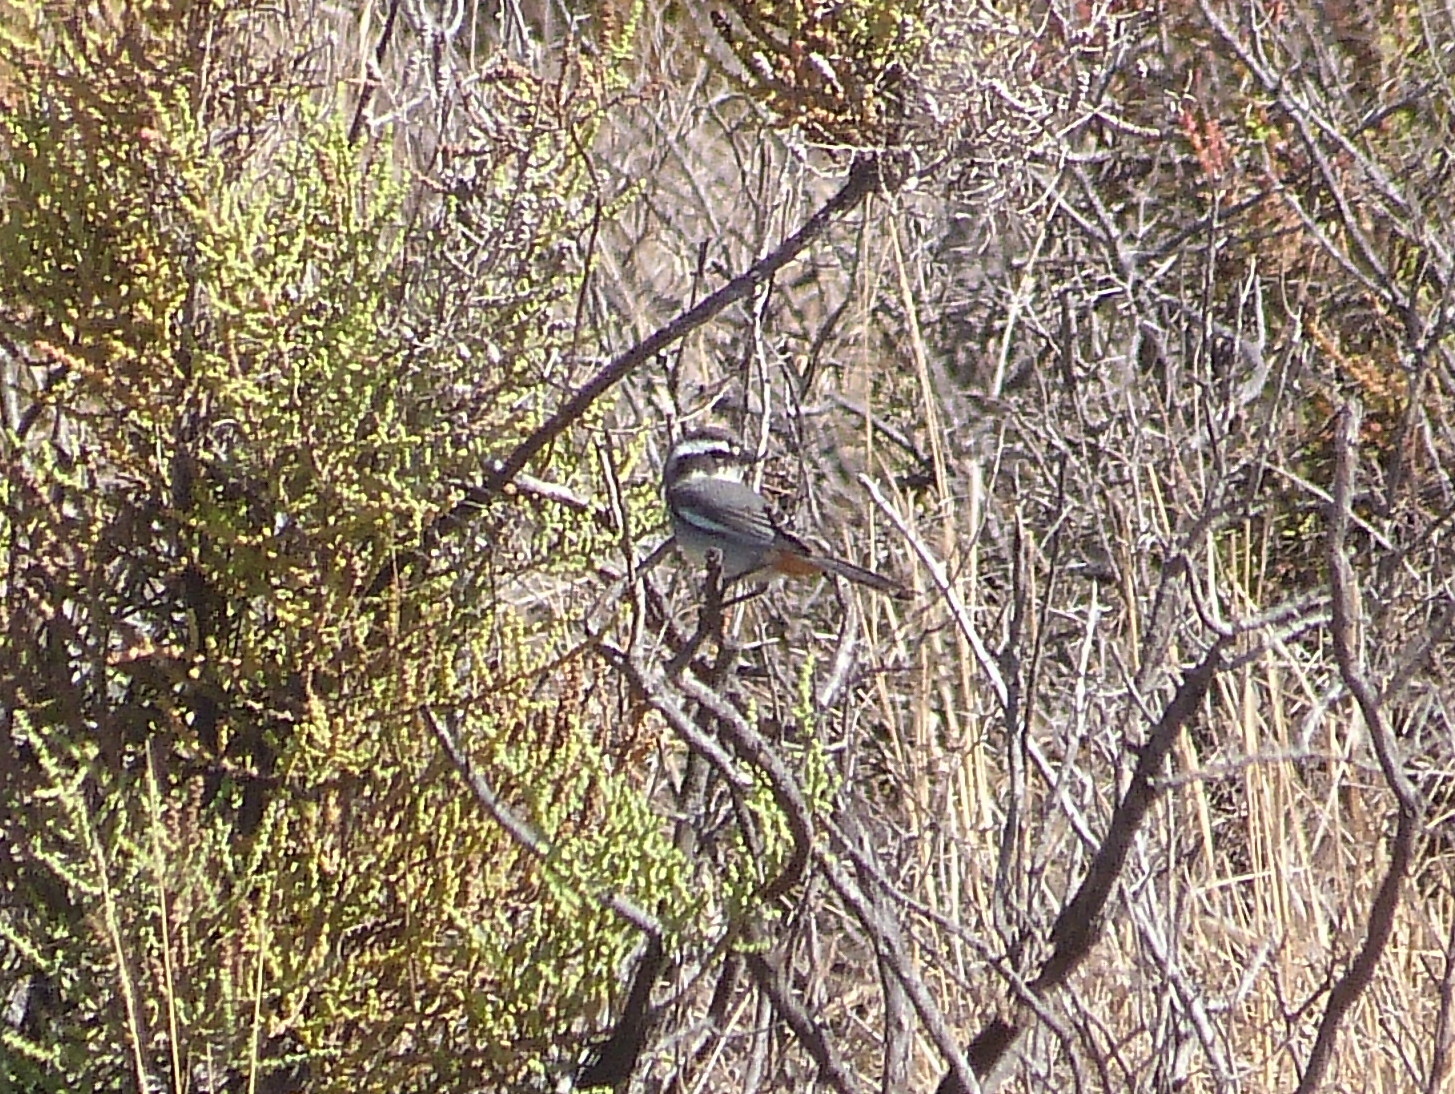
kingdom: Animalia
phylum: Chordata
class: Aves
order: Passeriformes
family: Thraupidae
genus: Microspingus
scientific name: Microspingus torquatus
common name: Ringed warbling-finch
